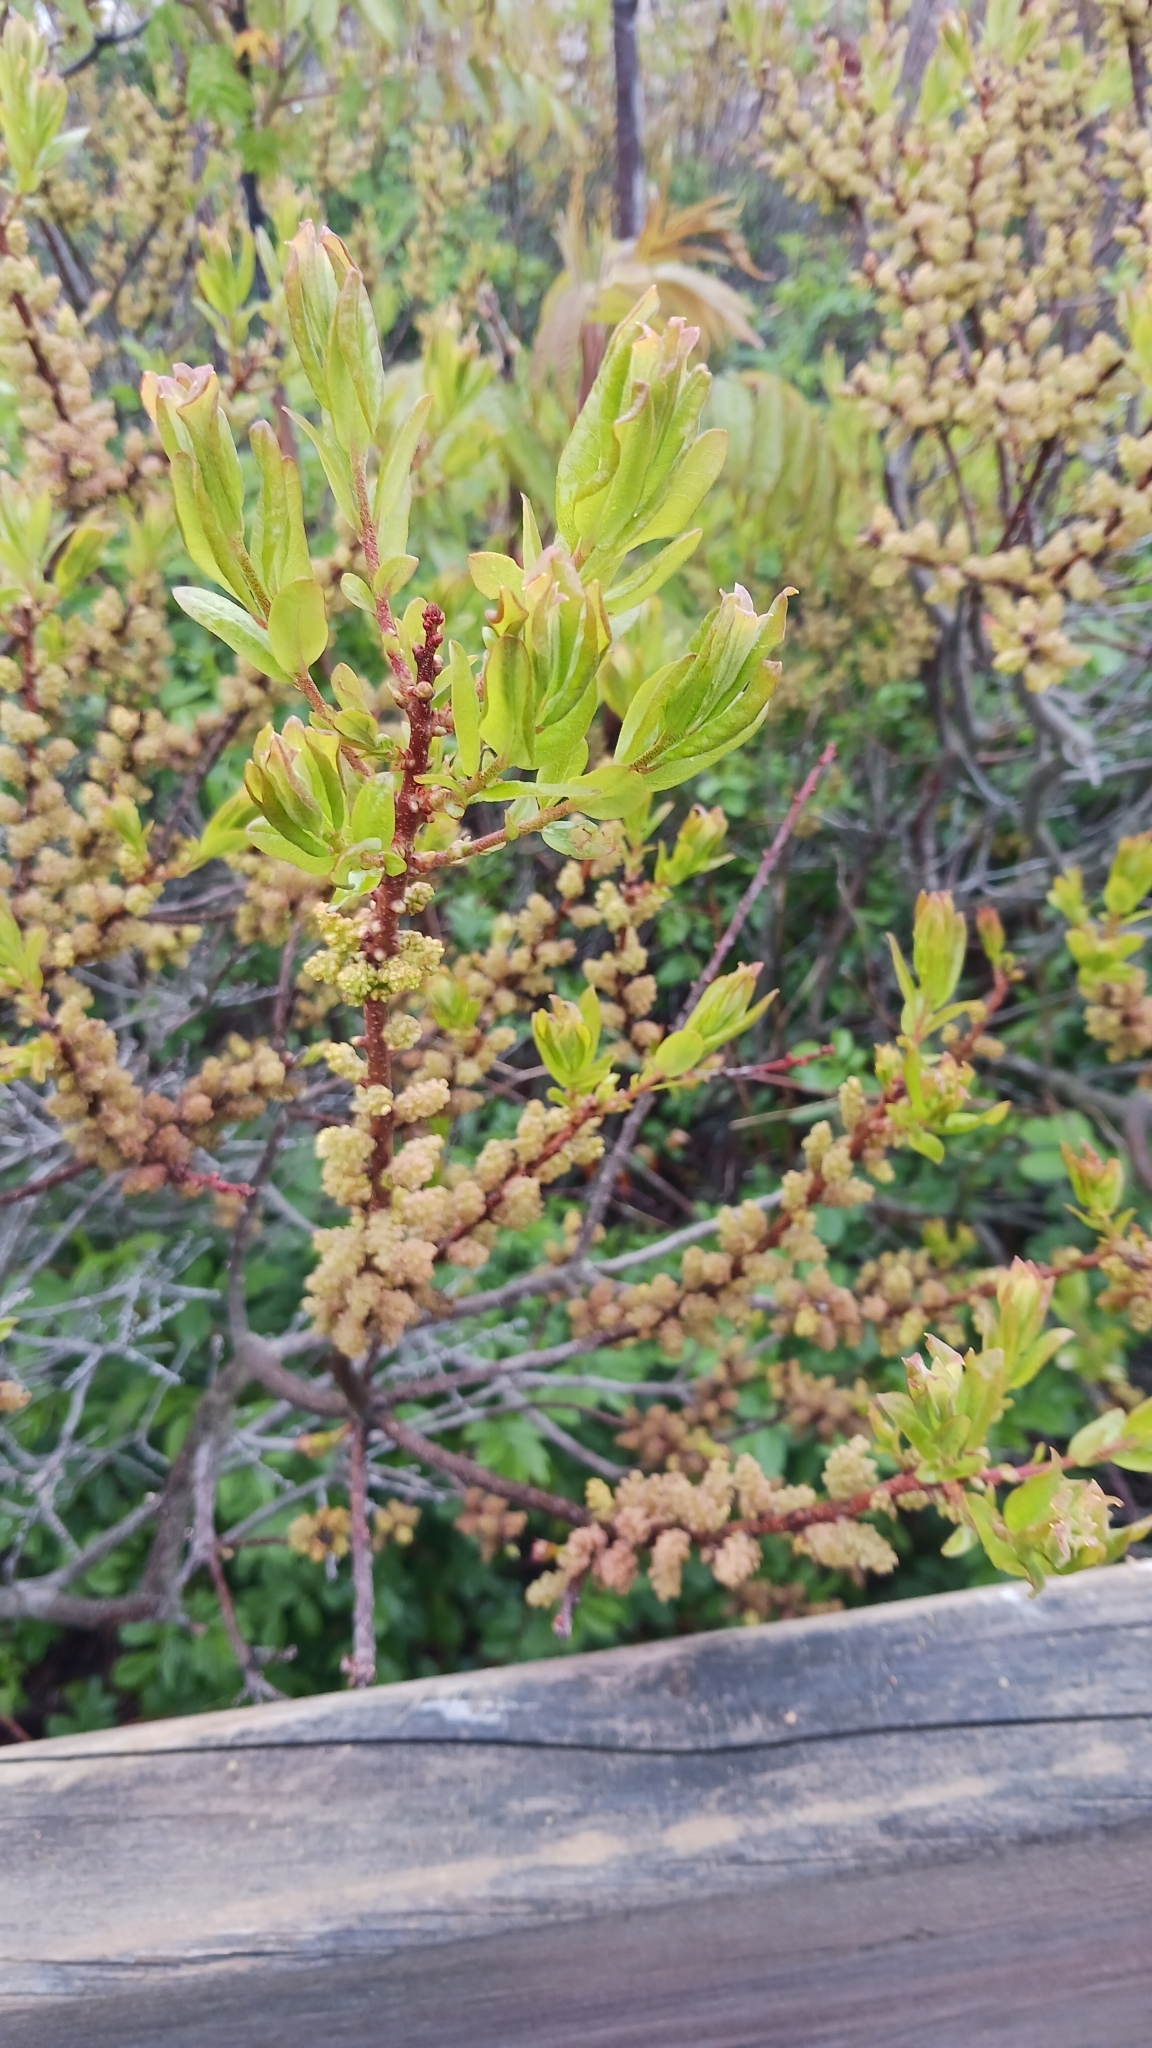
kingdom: Plantae
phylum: Tracheophyta
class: Magnoliopsida
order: Fagales
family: Myricaceae
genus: Morella
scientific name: Morella pensylvanica
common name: Northern bayberry
